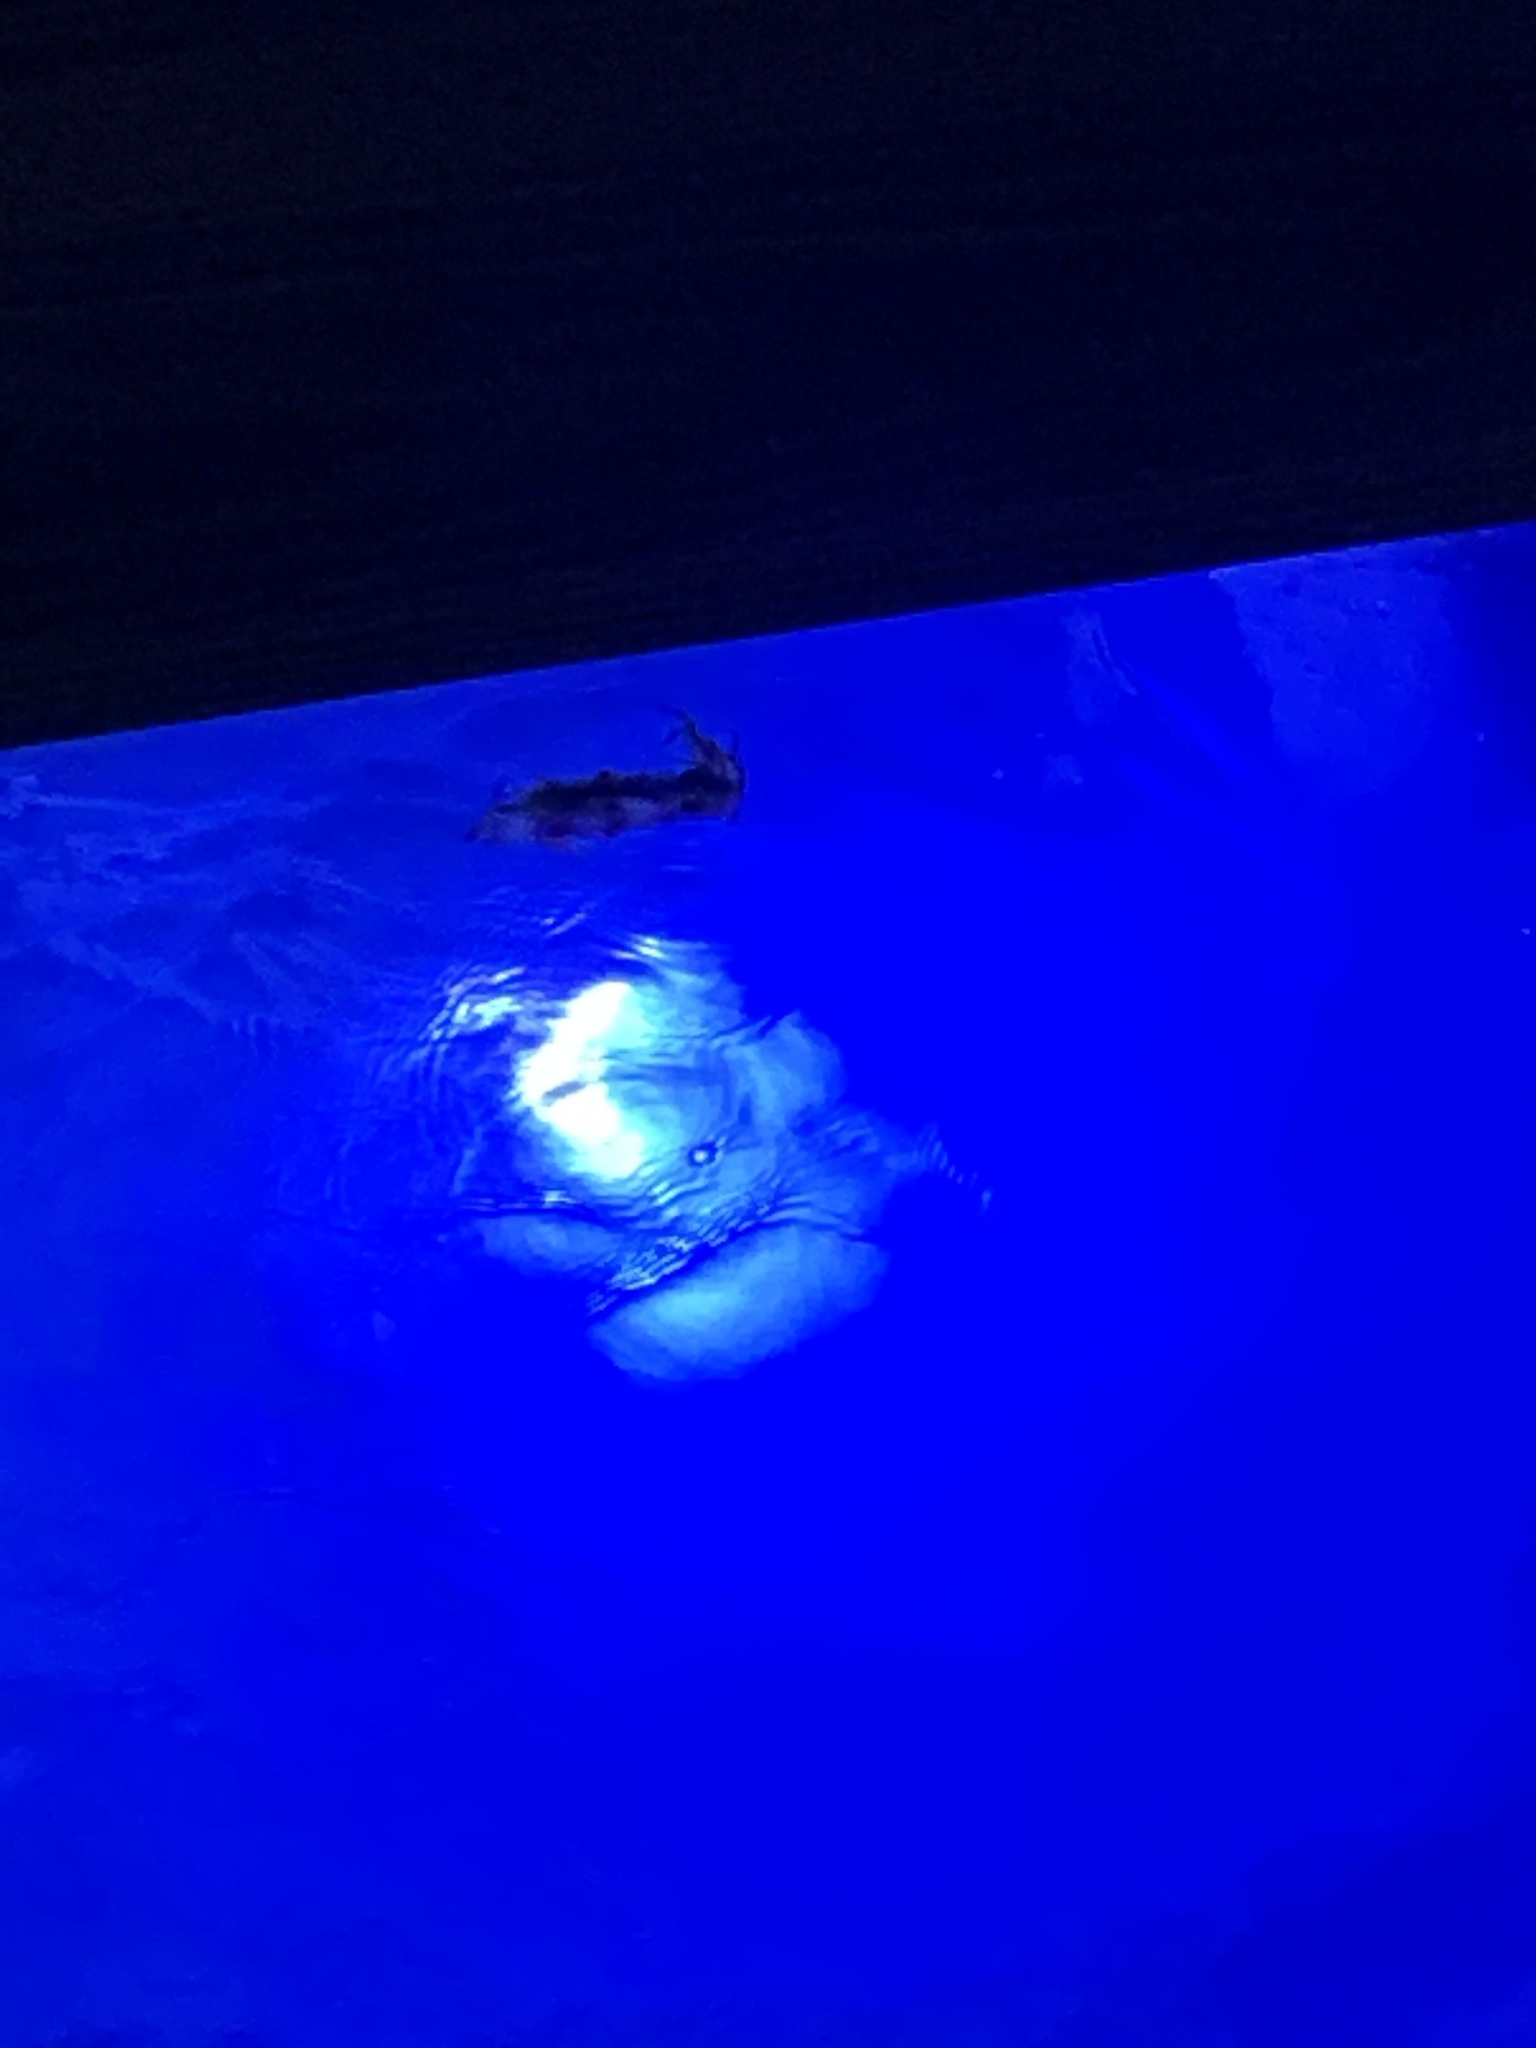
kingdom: Animalia
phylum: Mollusca
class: Cephalopoda
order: Myopsida
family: Loliginidae
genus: Sepioteuthis
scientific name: Sepioteuthis sepioidea
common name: Caribbean reef squid
